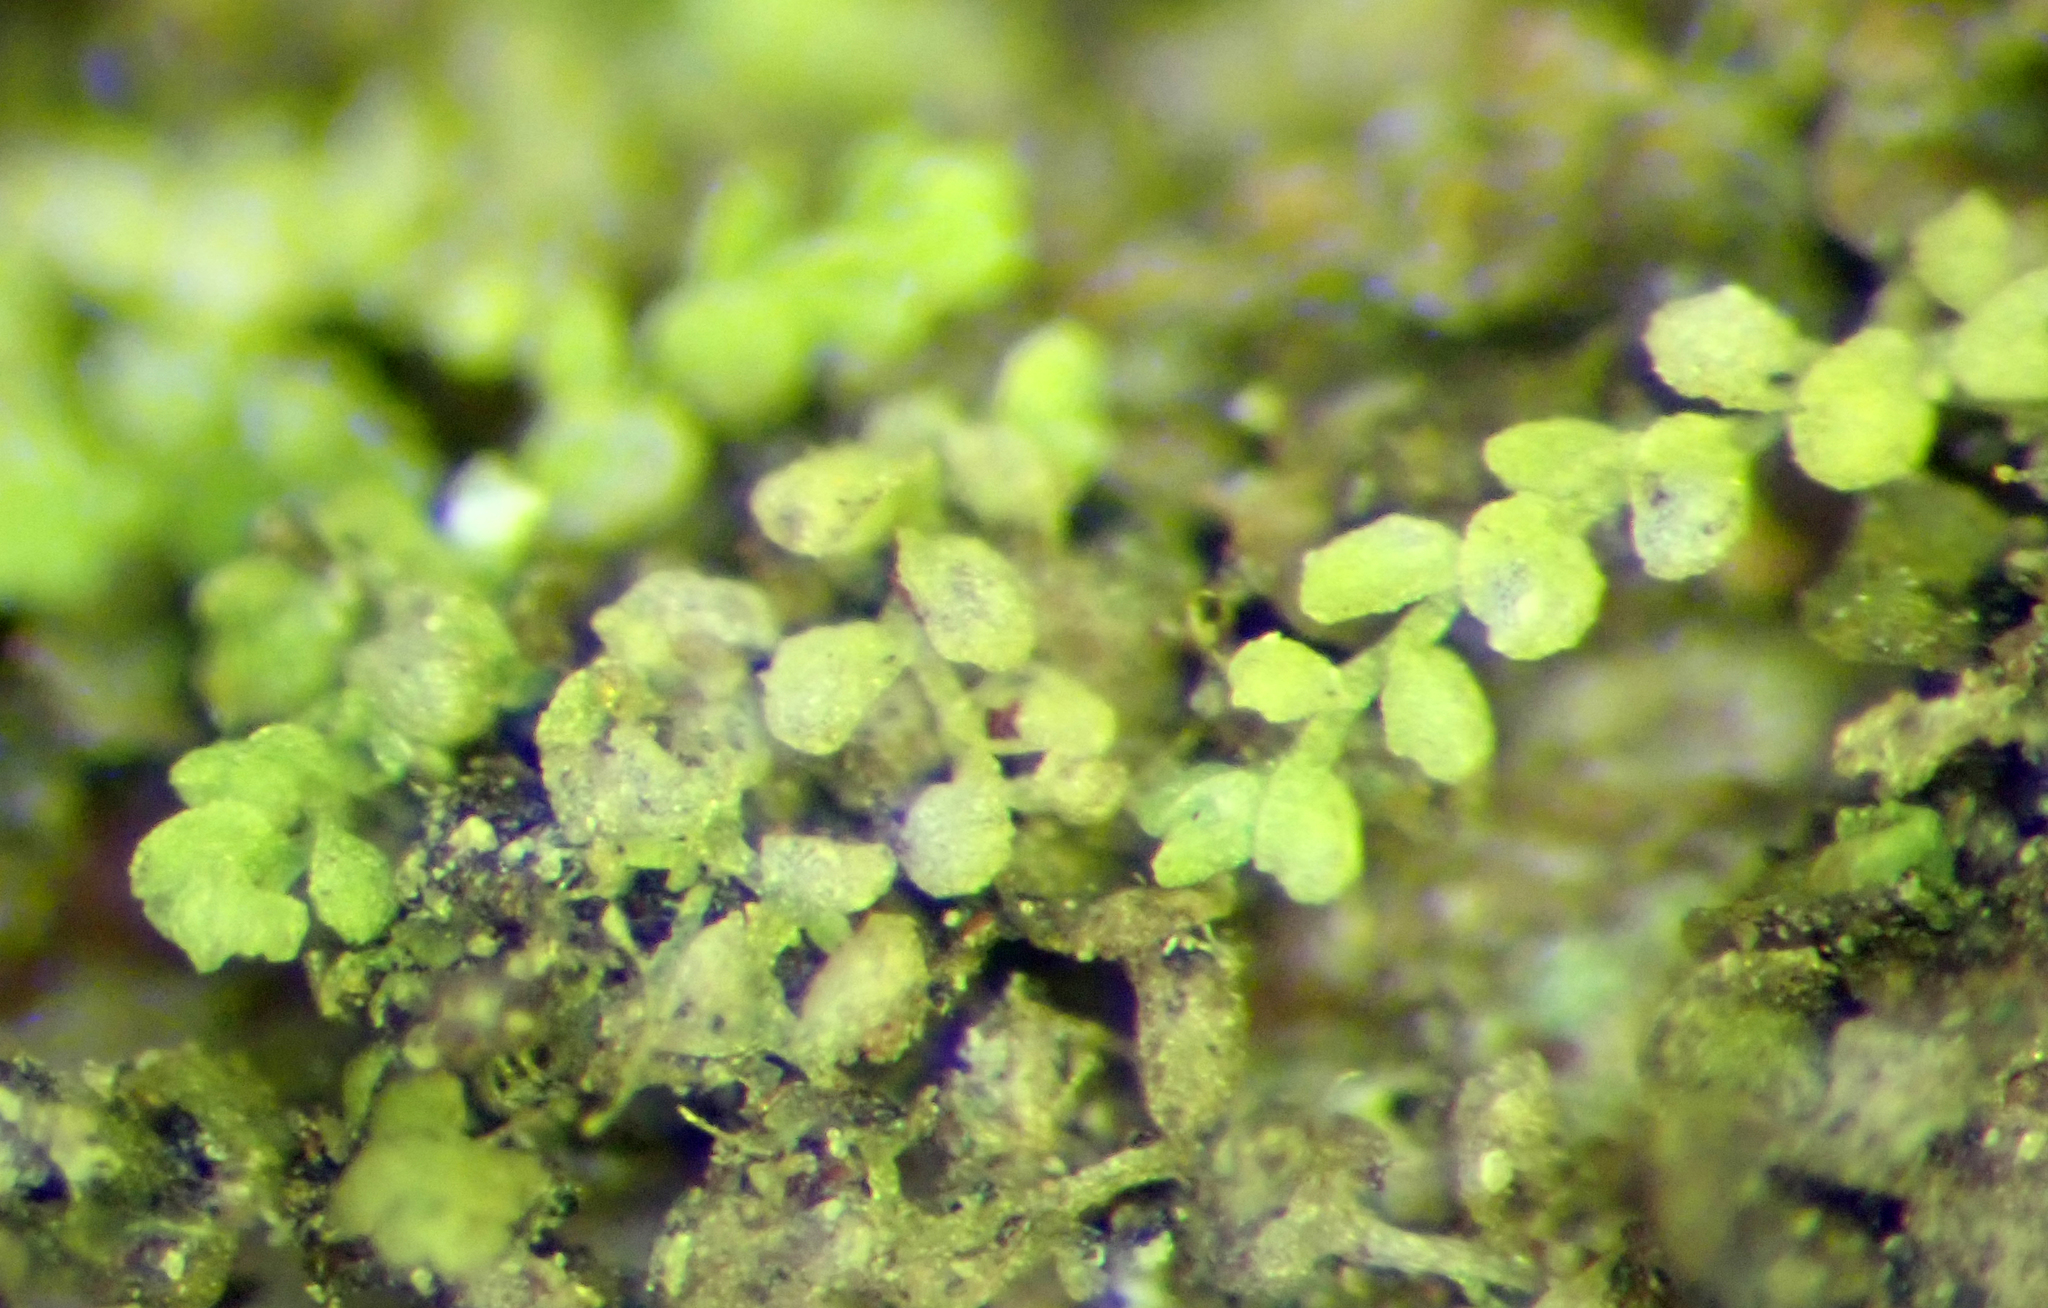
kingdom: Plantae
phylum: Marchantiophyta
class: Jungermanniopsida
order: Porellales
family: Lejeuneaceae
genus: Siphonolejeunea
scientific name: Siphonolejeunea nudipes
